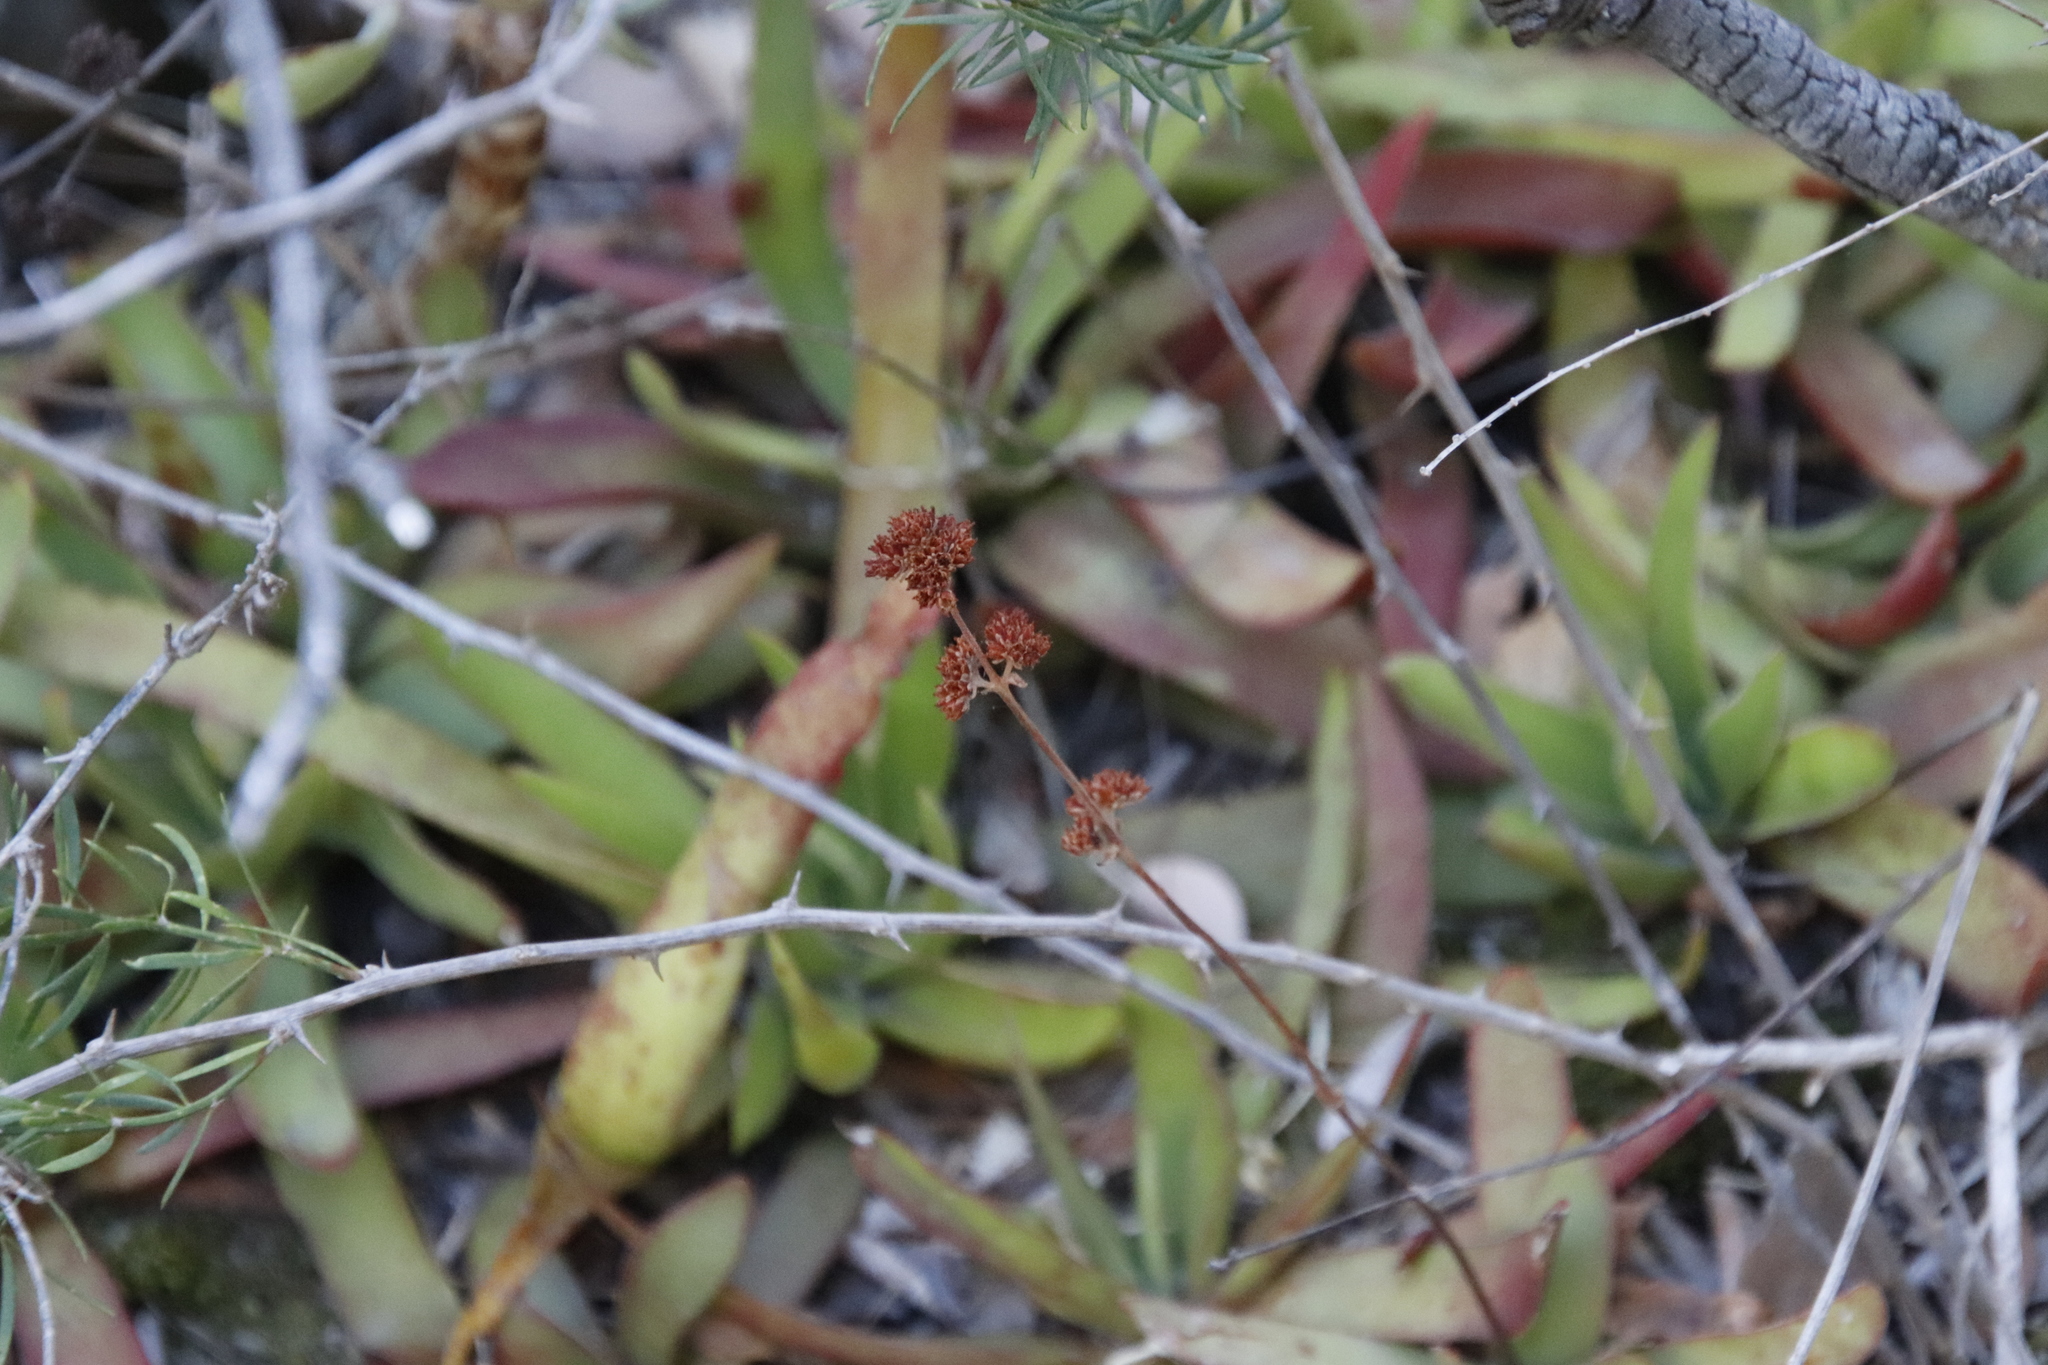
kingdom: Plantae
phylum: Tracheophyta
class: Magnoliopsida
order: Saxifragales
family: Crassulaceae
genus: Crassula
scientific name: Crassula nudicaulis
